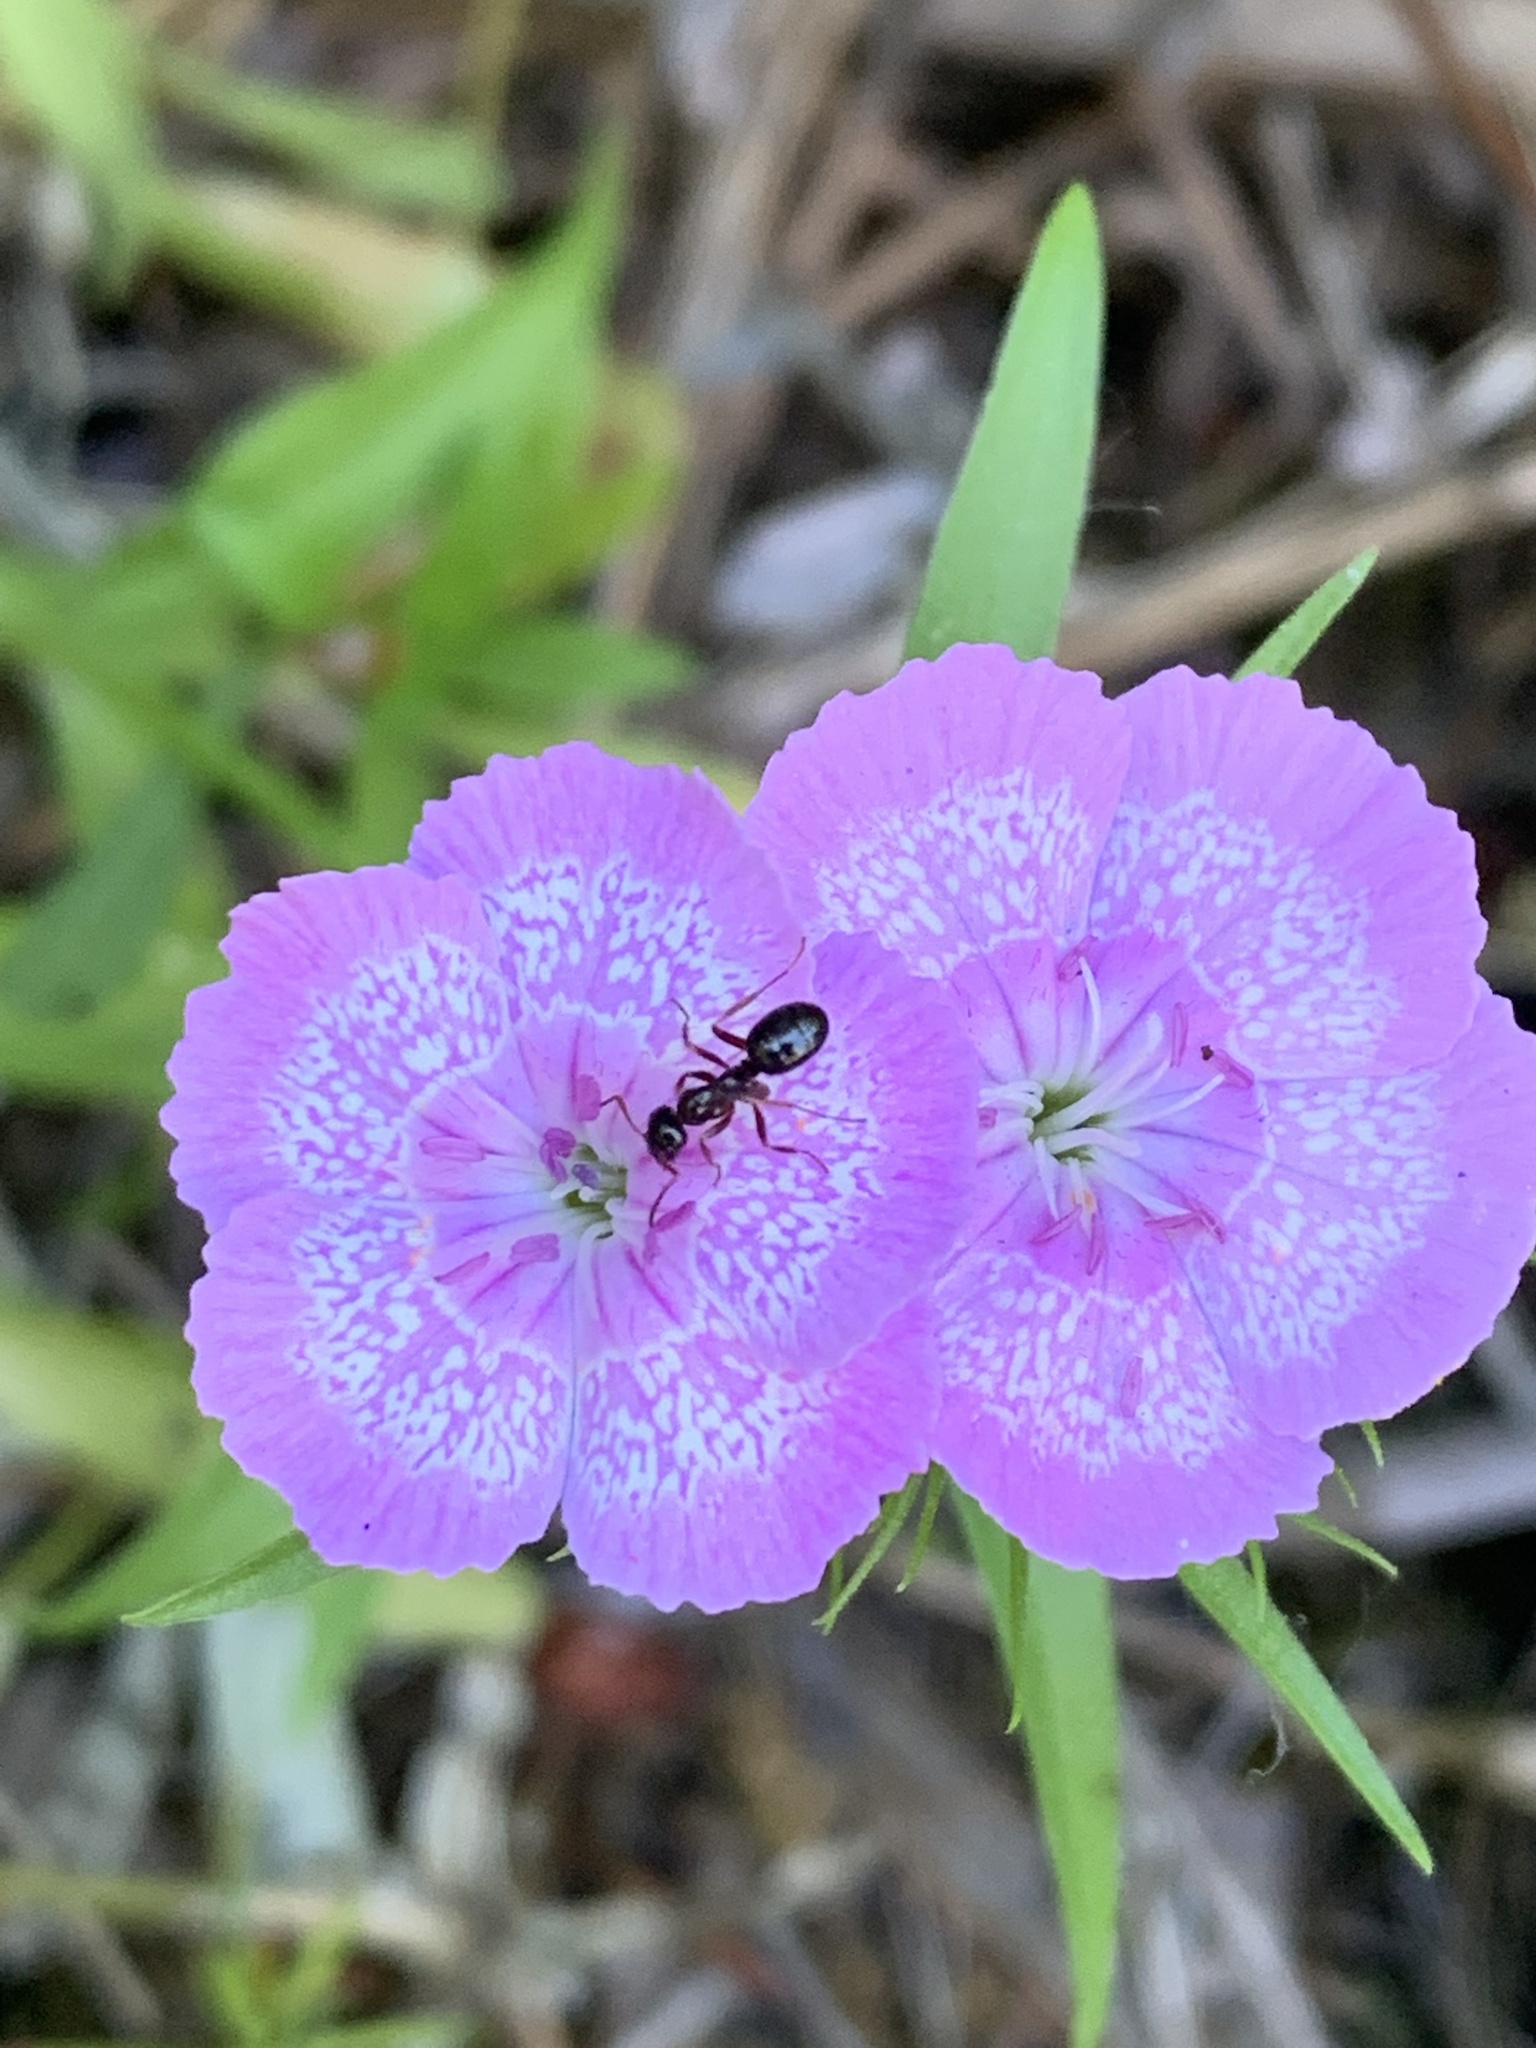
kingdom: Plantae
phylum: Tracheophyta
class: Magnoliopsida
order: Caryophyllales
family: Caryophyllaceae
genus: Dianthus
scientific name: Dianthus barbatus
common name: Sweet-william
